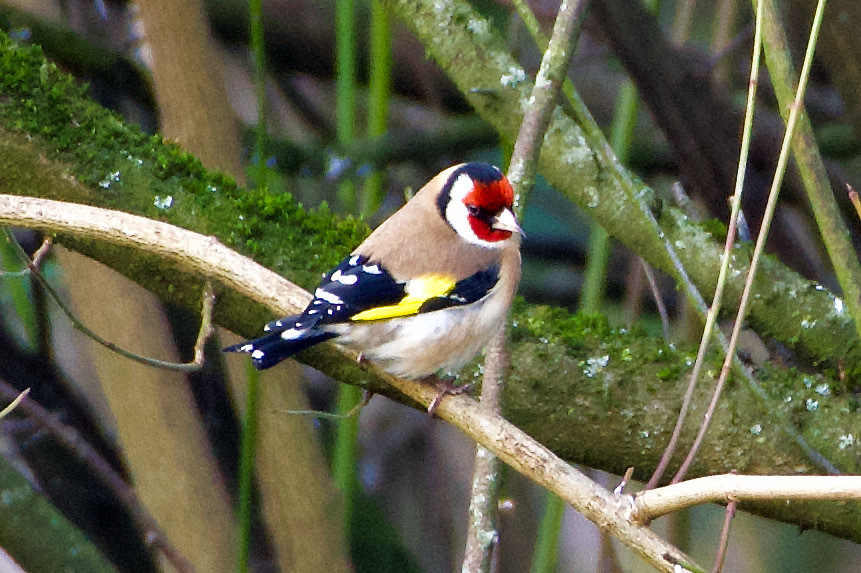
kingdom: Animalia
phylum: Chordata
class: Aves
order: Passeriformes
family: Fringillidae
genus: Carduelis
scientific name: Carduelis carduelis
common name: European goldfinch
